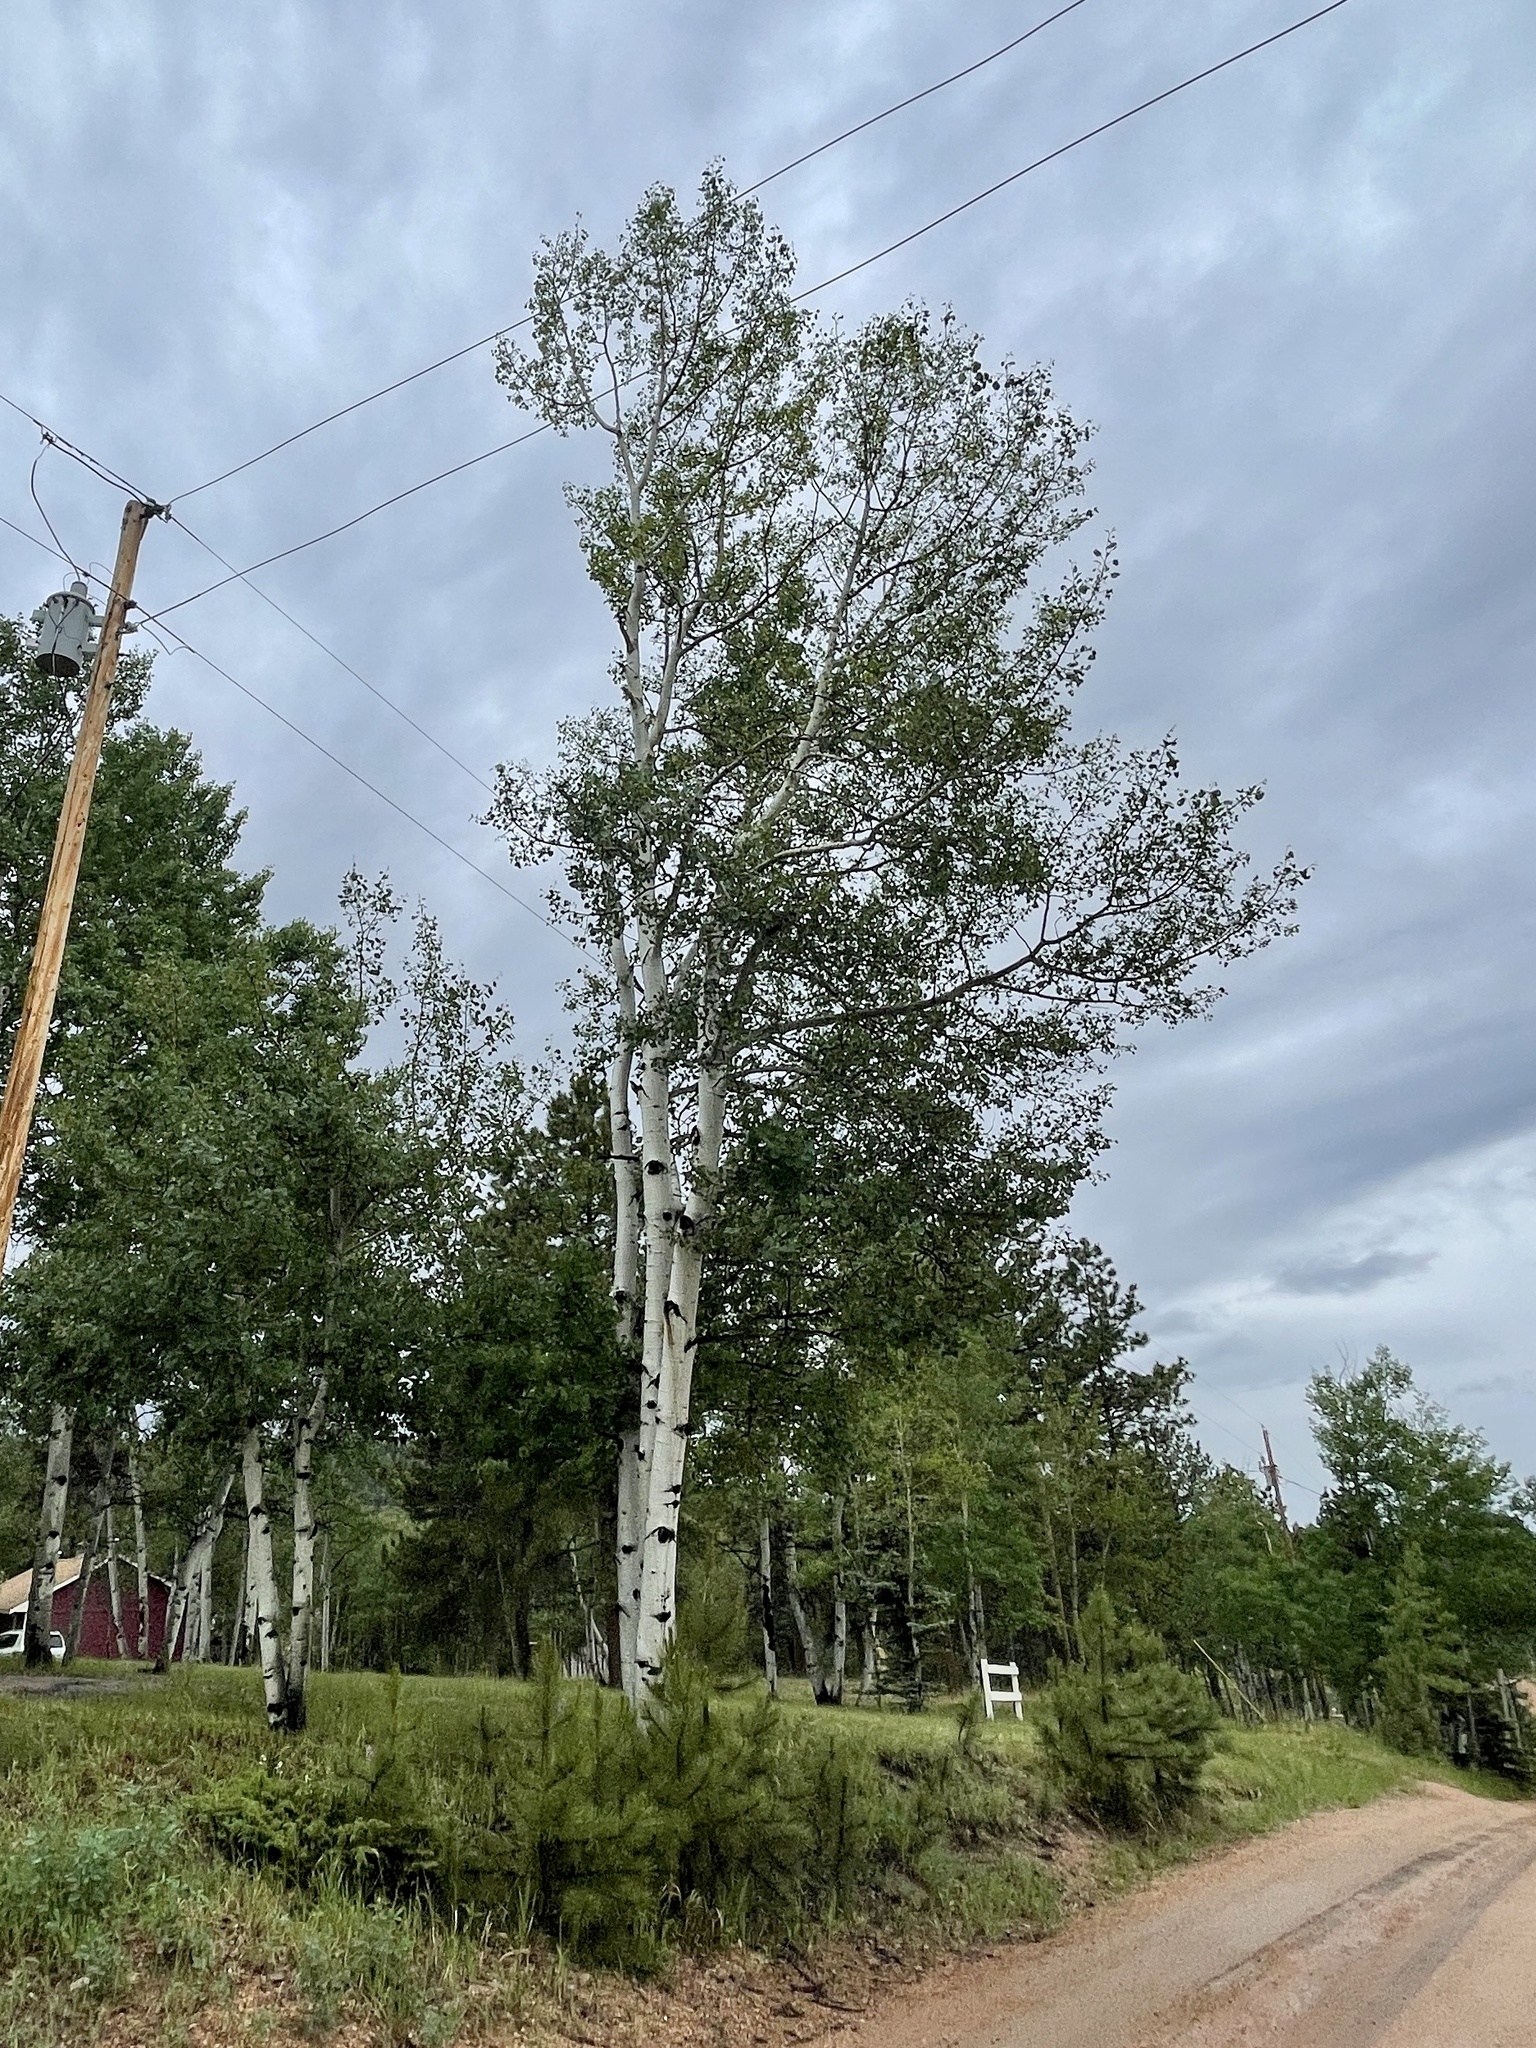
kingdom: Plantae
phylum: Tracheophyta
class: Magnoliopsida
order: Malpighiales
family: Salicaceae
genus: Populus
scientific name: Populus tremuloides
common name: Quaking aspen
